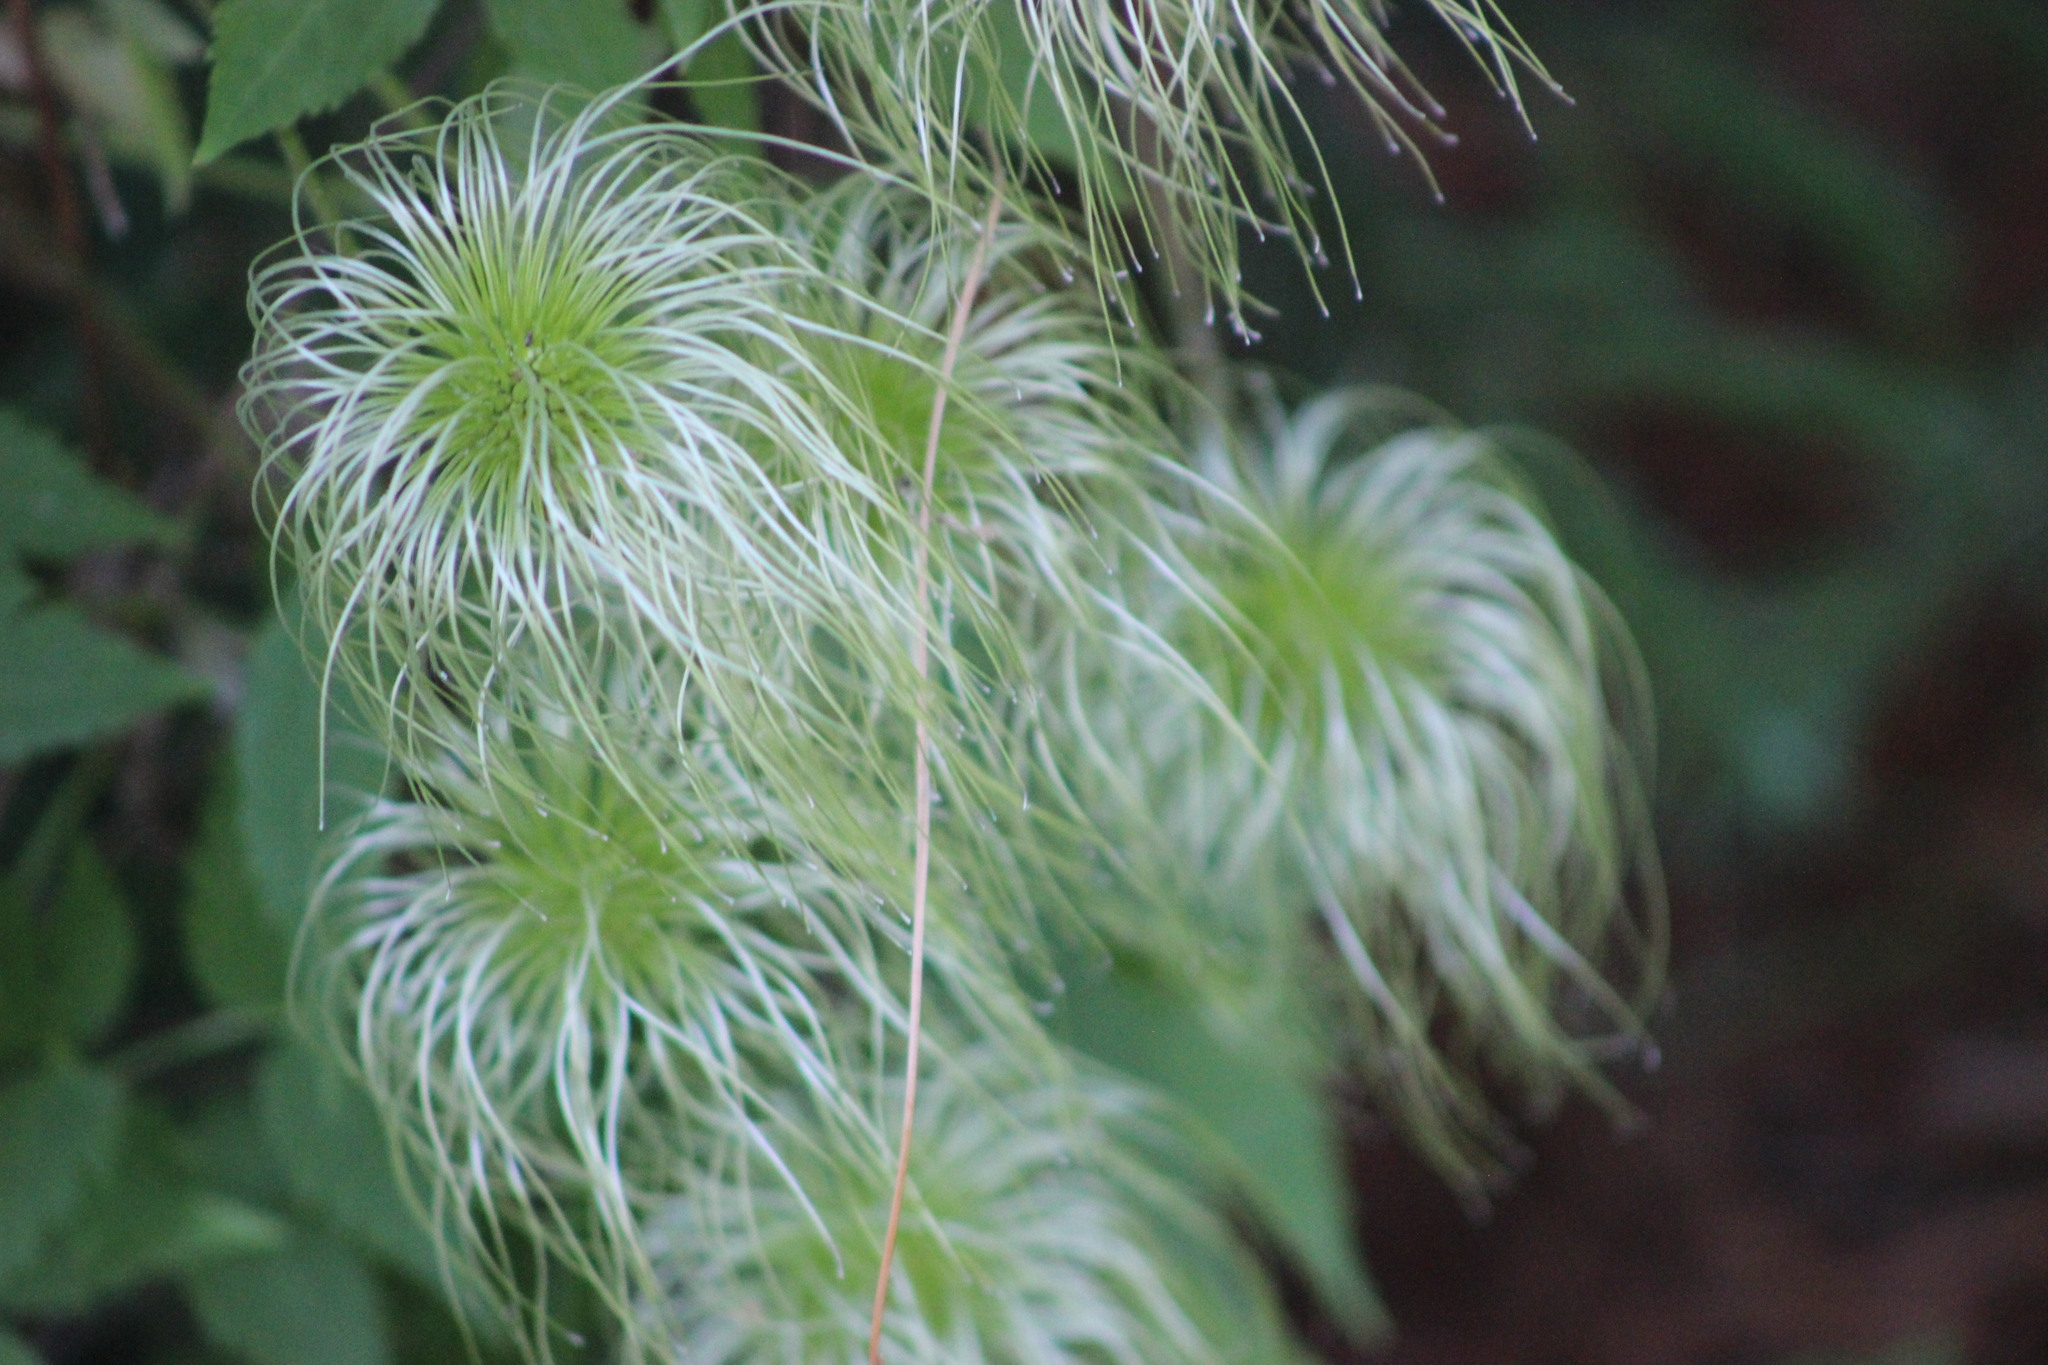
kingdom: Plantae
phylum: Tracheophyta
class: Magnoliopsida
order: Ranunculales
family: Ranunculaceae
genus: Clematis
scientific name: Clematis sibirica
